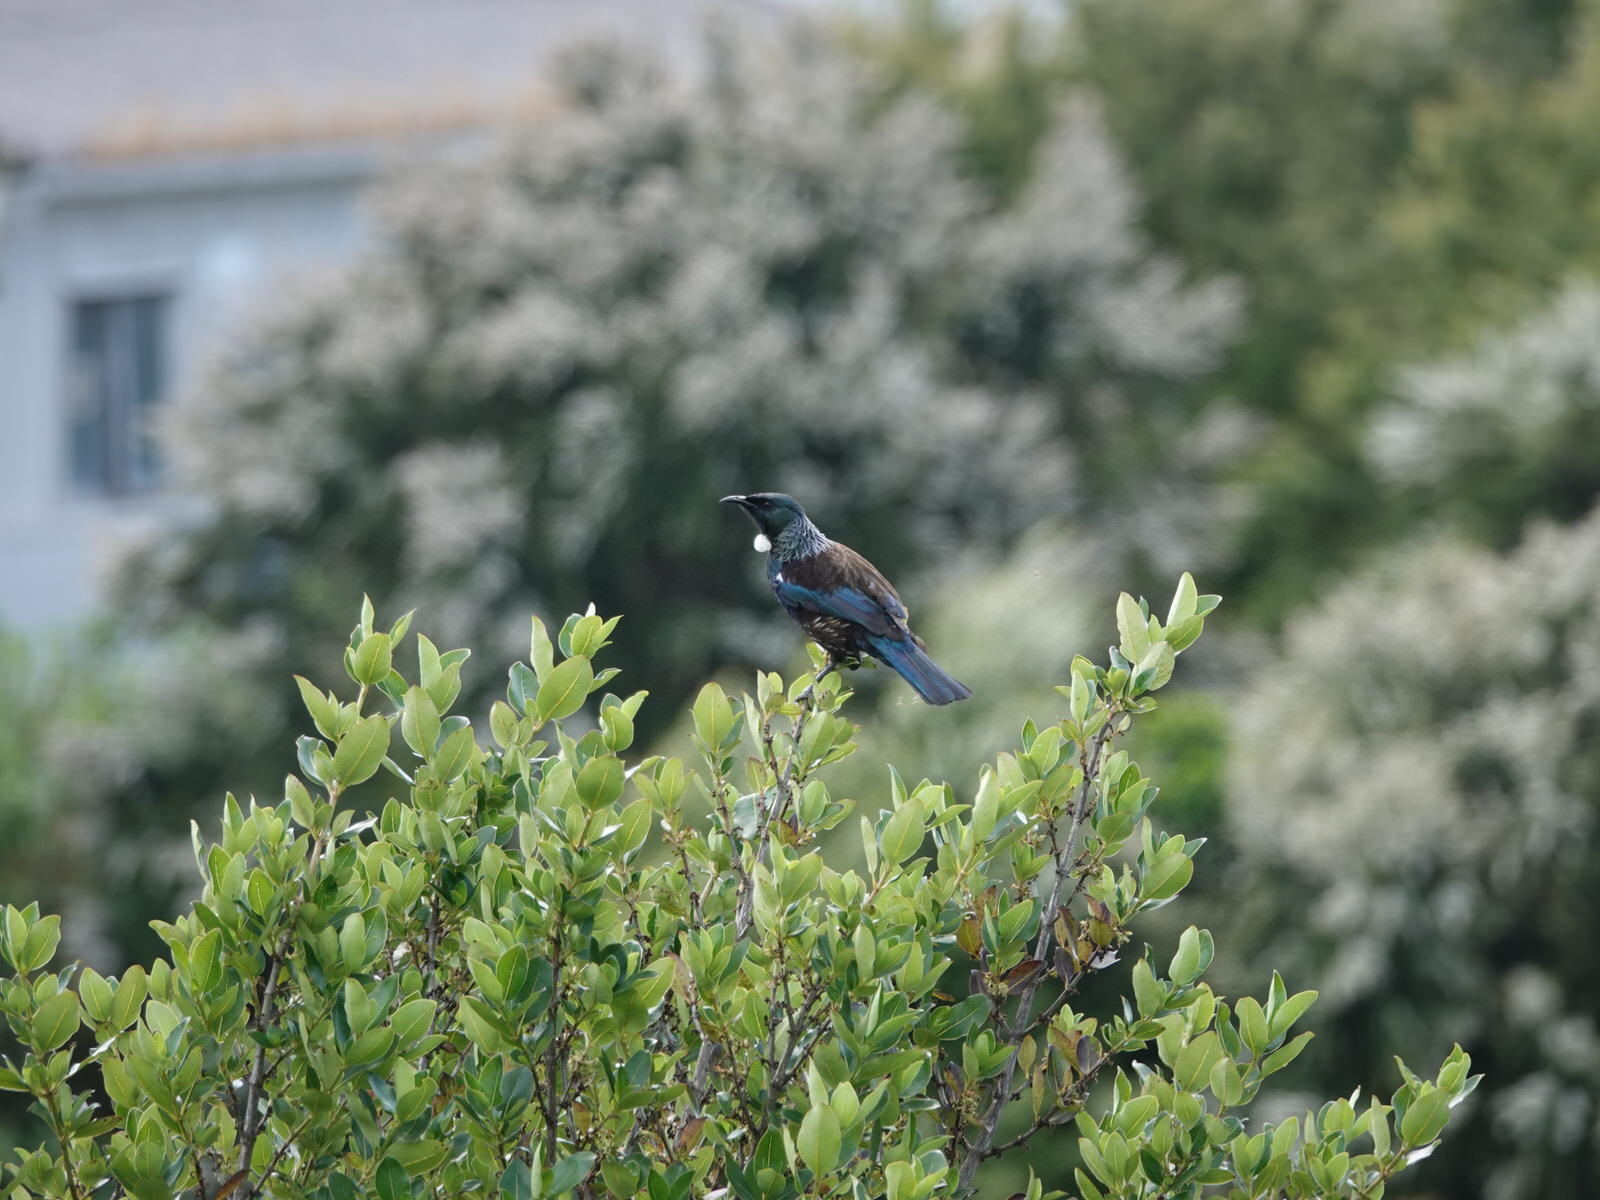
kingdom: Animalia
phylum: Chordata
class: Aves
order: Passeriformes
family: Meliphagidae
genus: Prosthemadera
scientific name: Prosthemadera novaeseelandiae
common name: Tui
